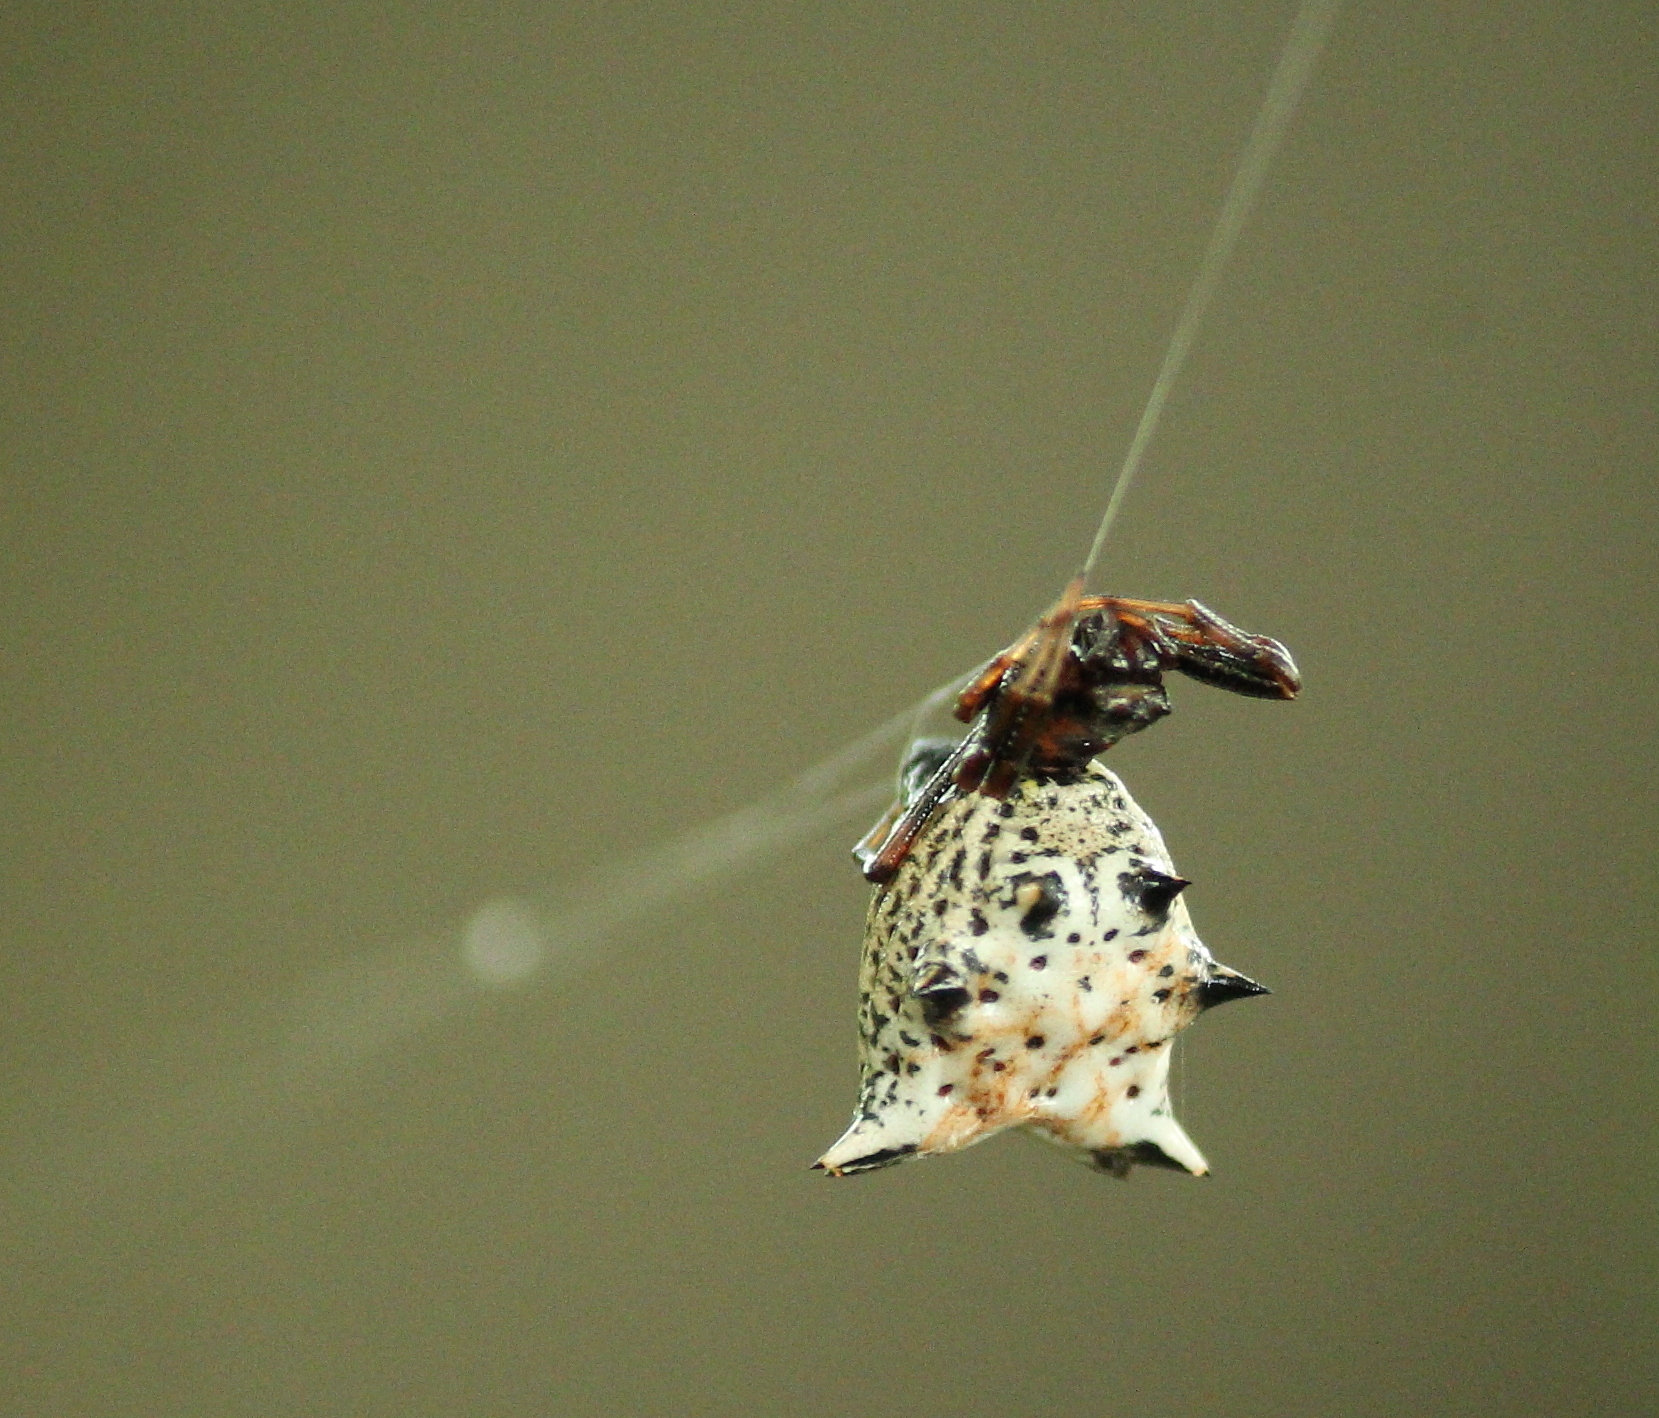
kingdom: Animalia
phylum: Arthropoda
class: Arachnida
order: Araneae
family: Araneidae
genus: Micrathena
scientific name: Micrathena gracilis
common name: Orb weavers
